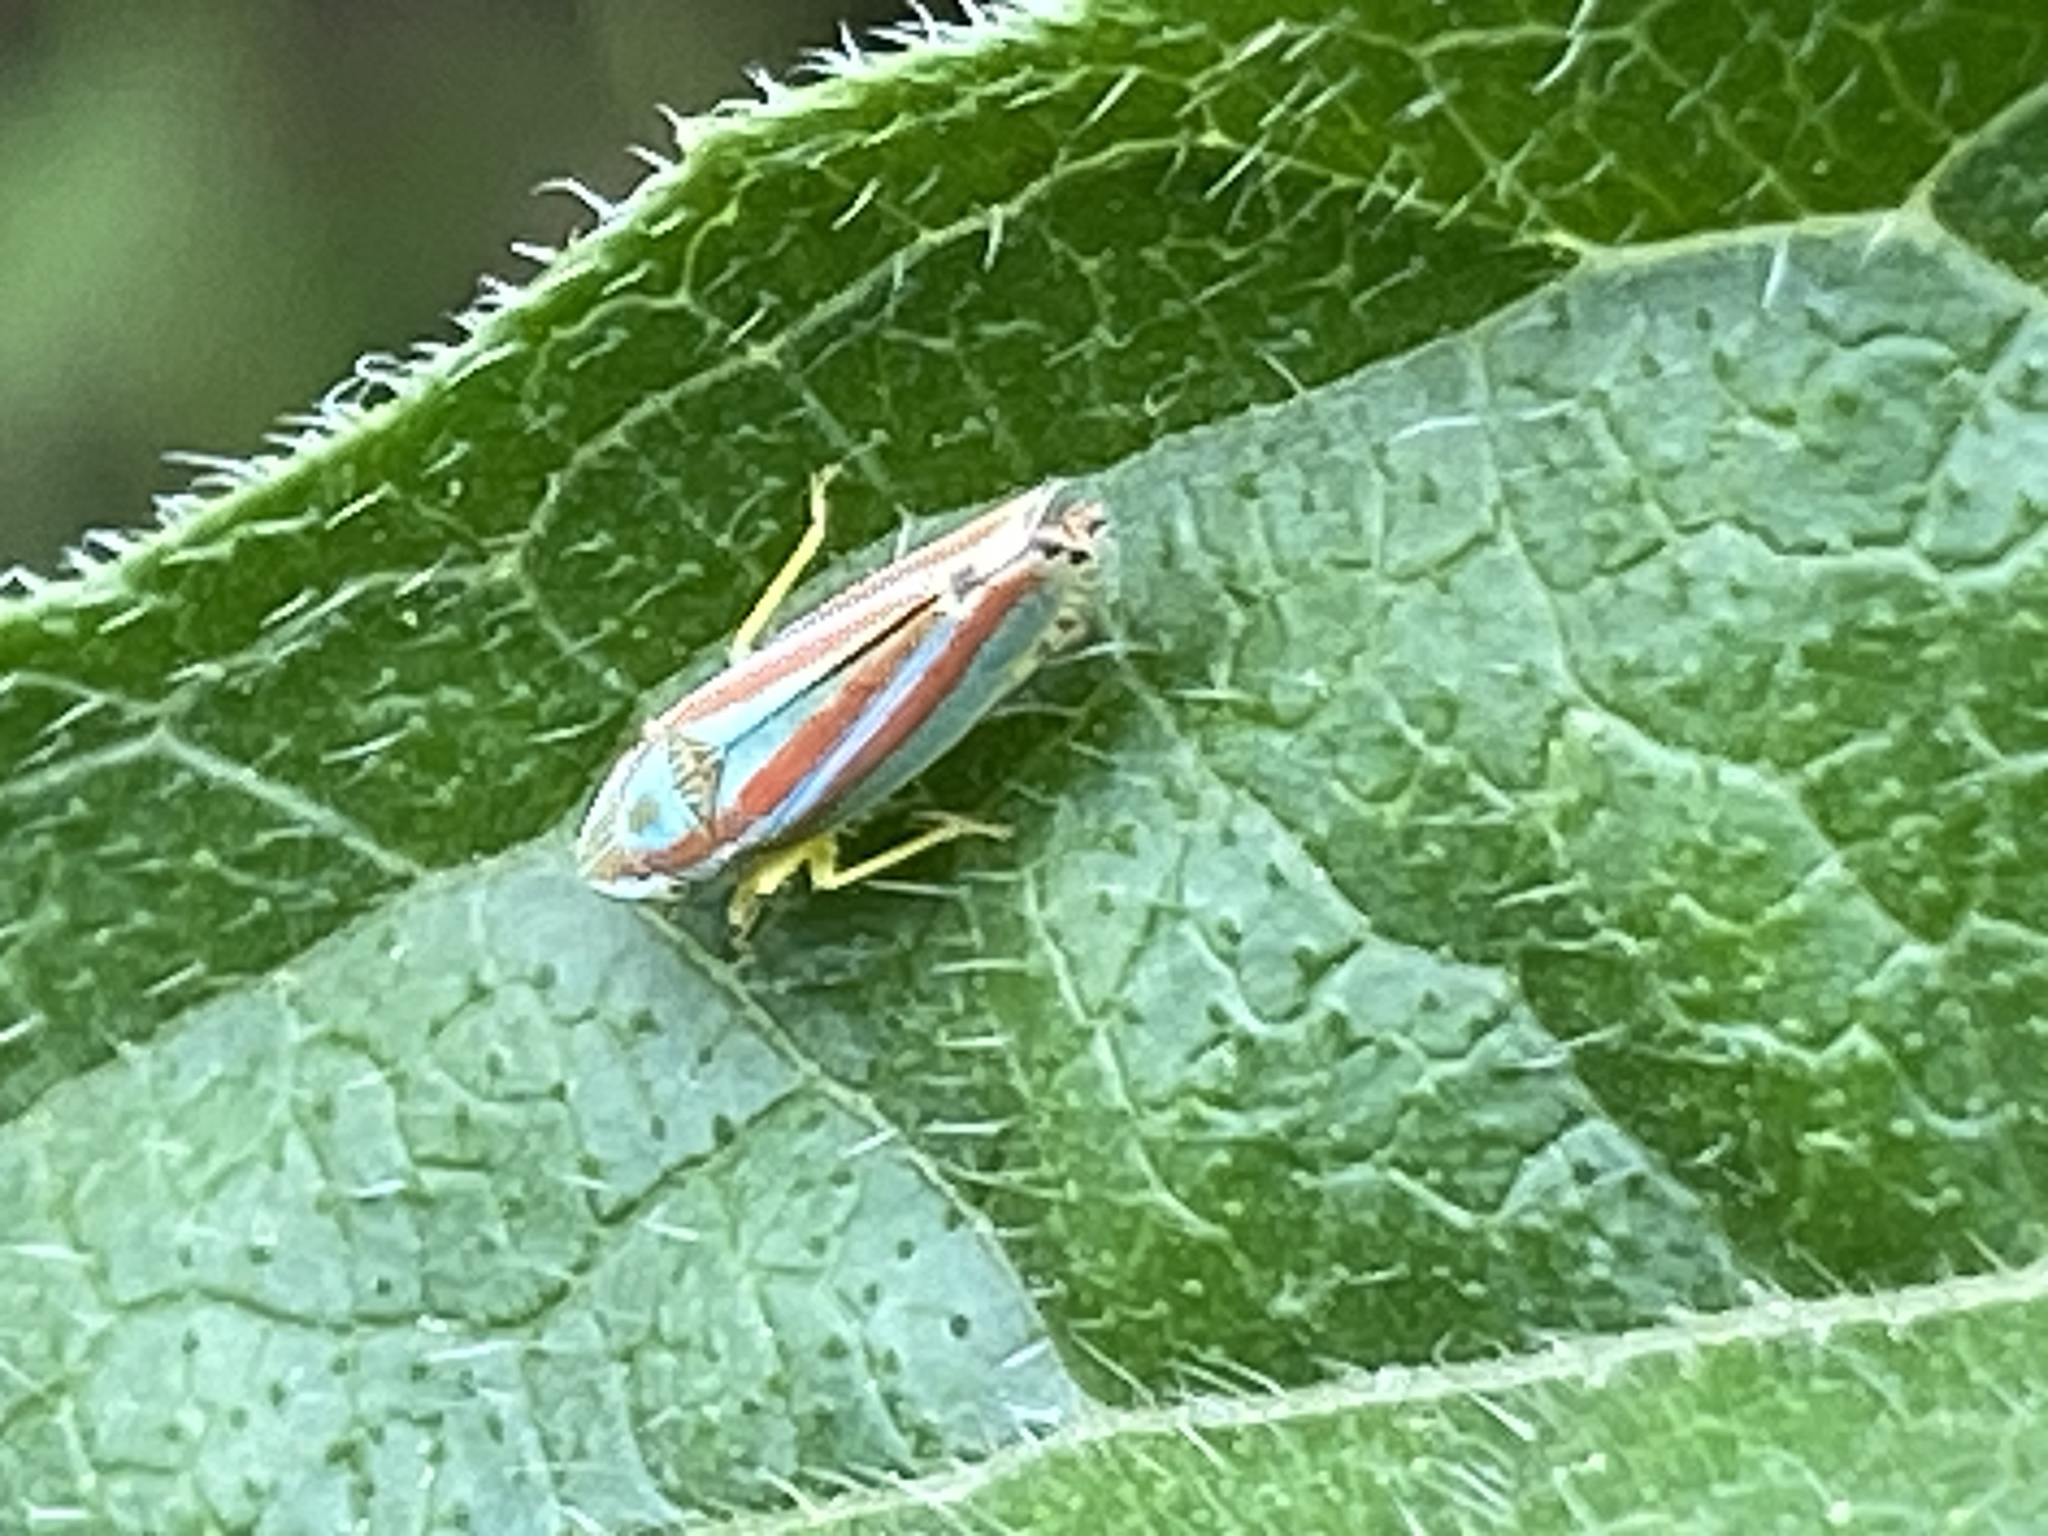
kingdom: Animalia
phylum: Arthropoda
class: Insecta
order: Hemiptera
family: Cicadellidae
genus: Graphocephala
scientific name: Graphocephala versuta
